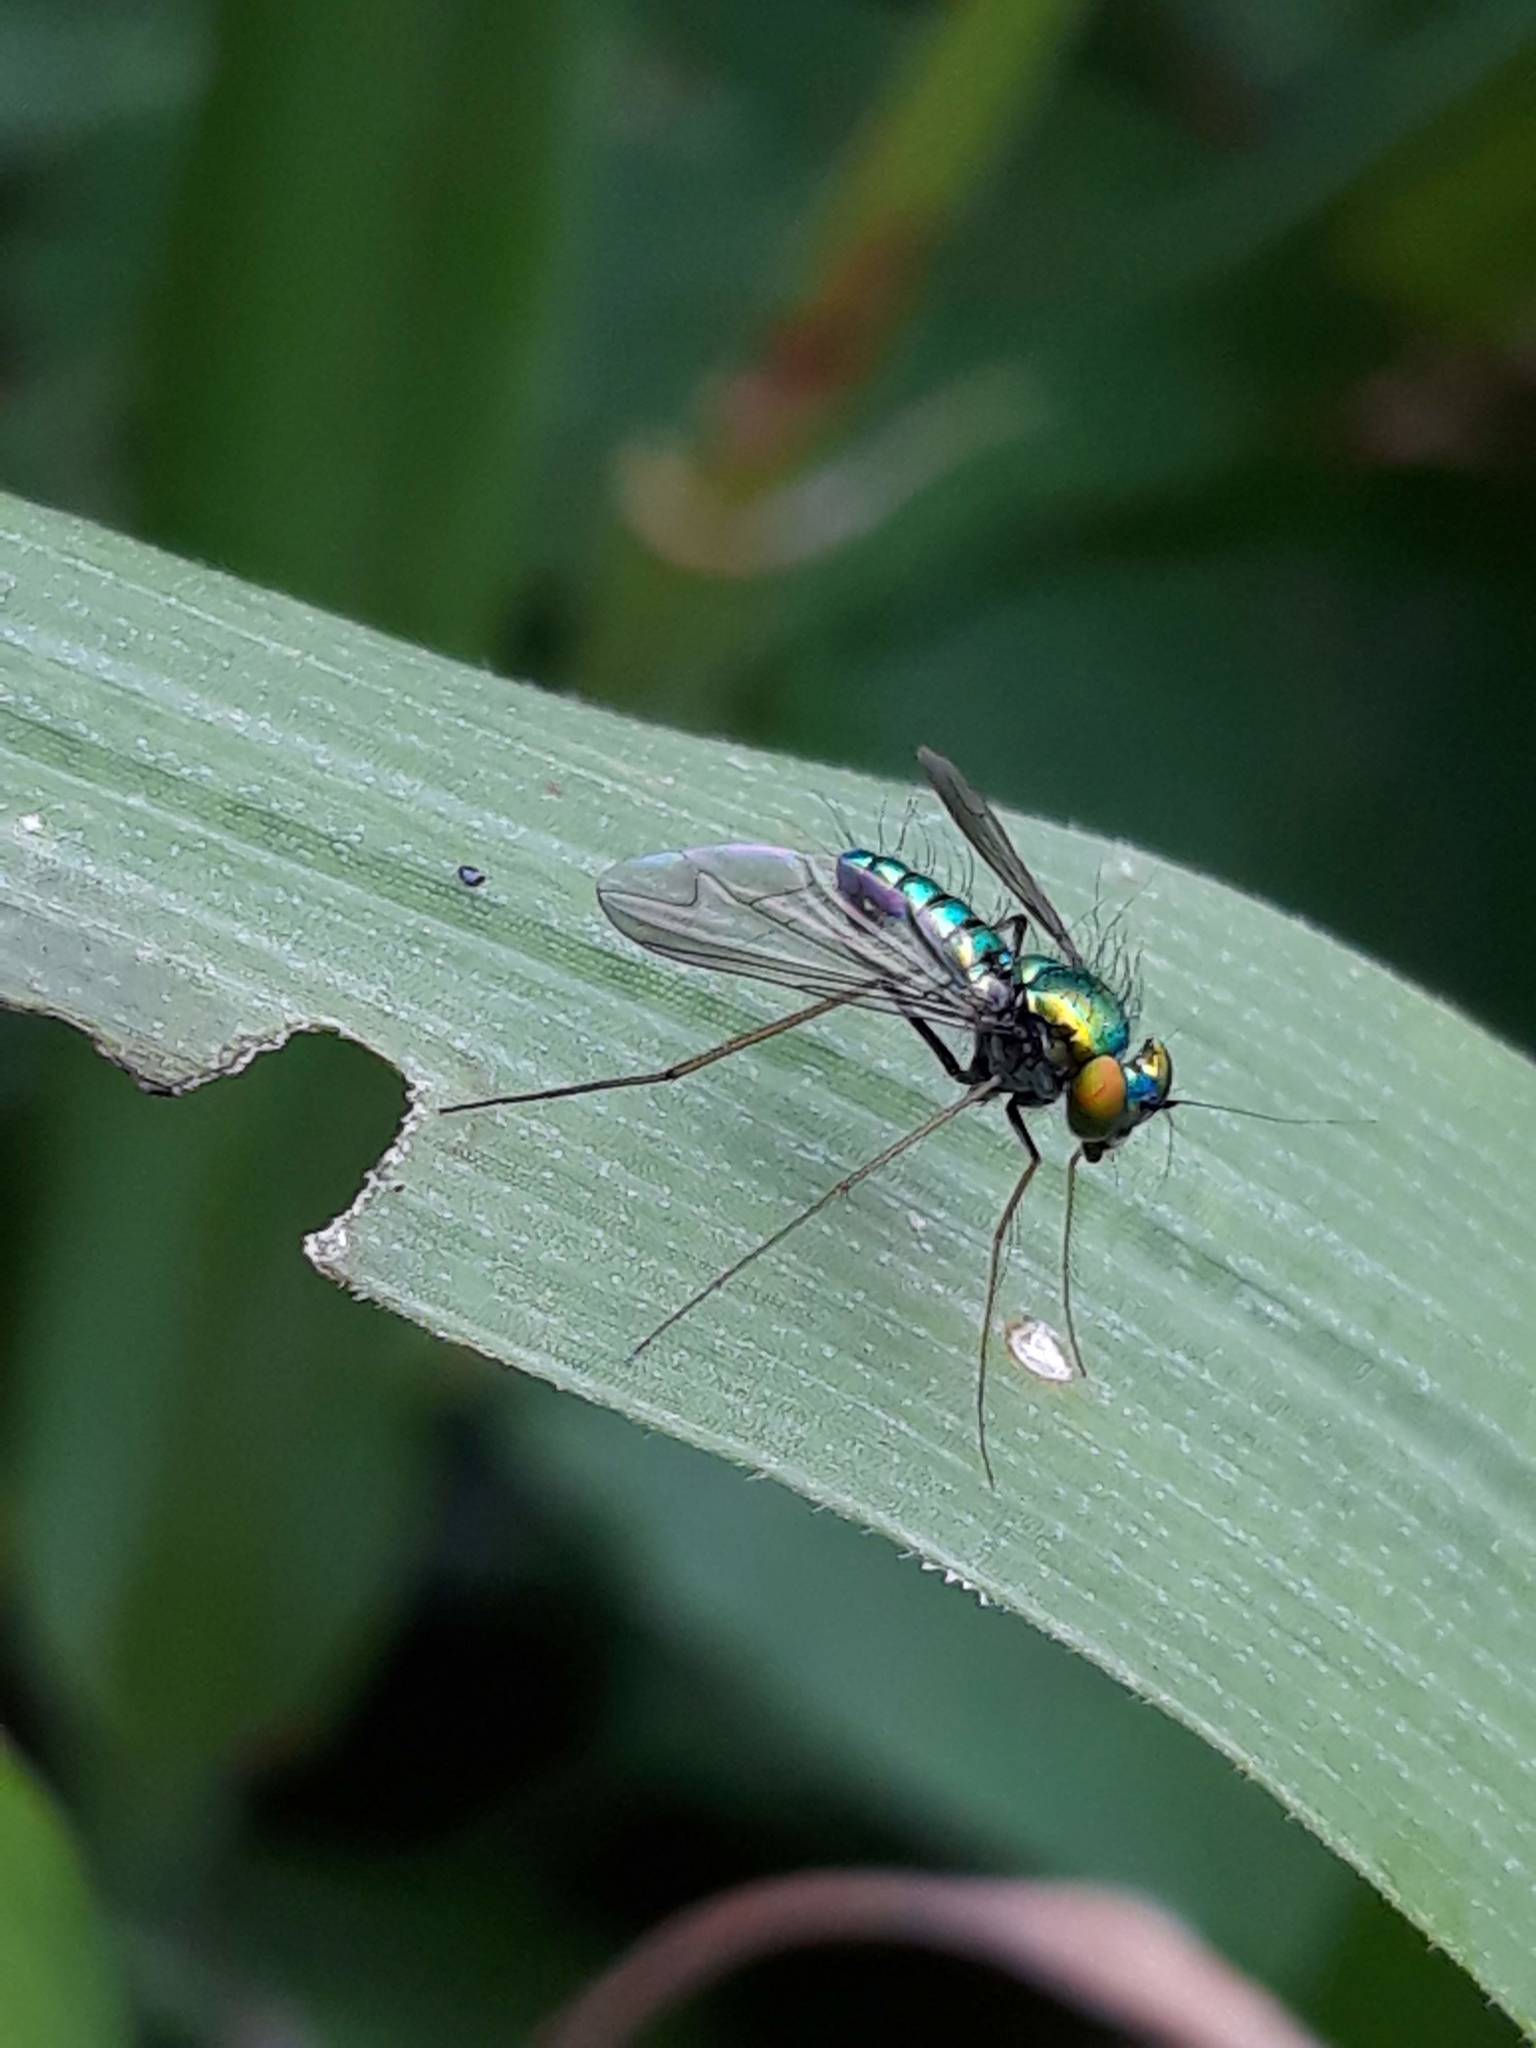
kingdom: Animalia
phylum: Arthropoda
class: Insecta
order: Diptera
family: Dolichopodidae
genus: Condylostylus
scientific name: Condylostylus comatus
